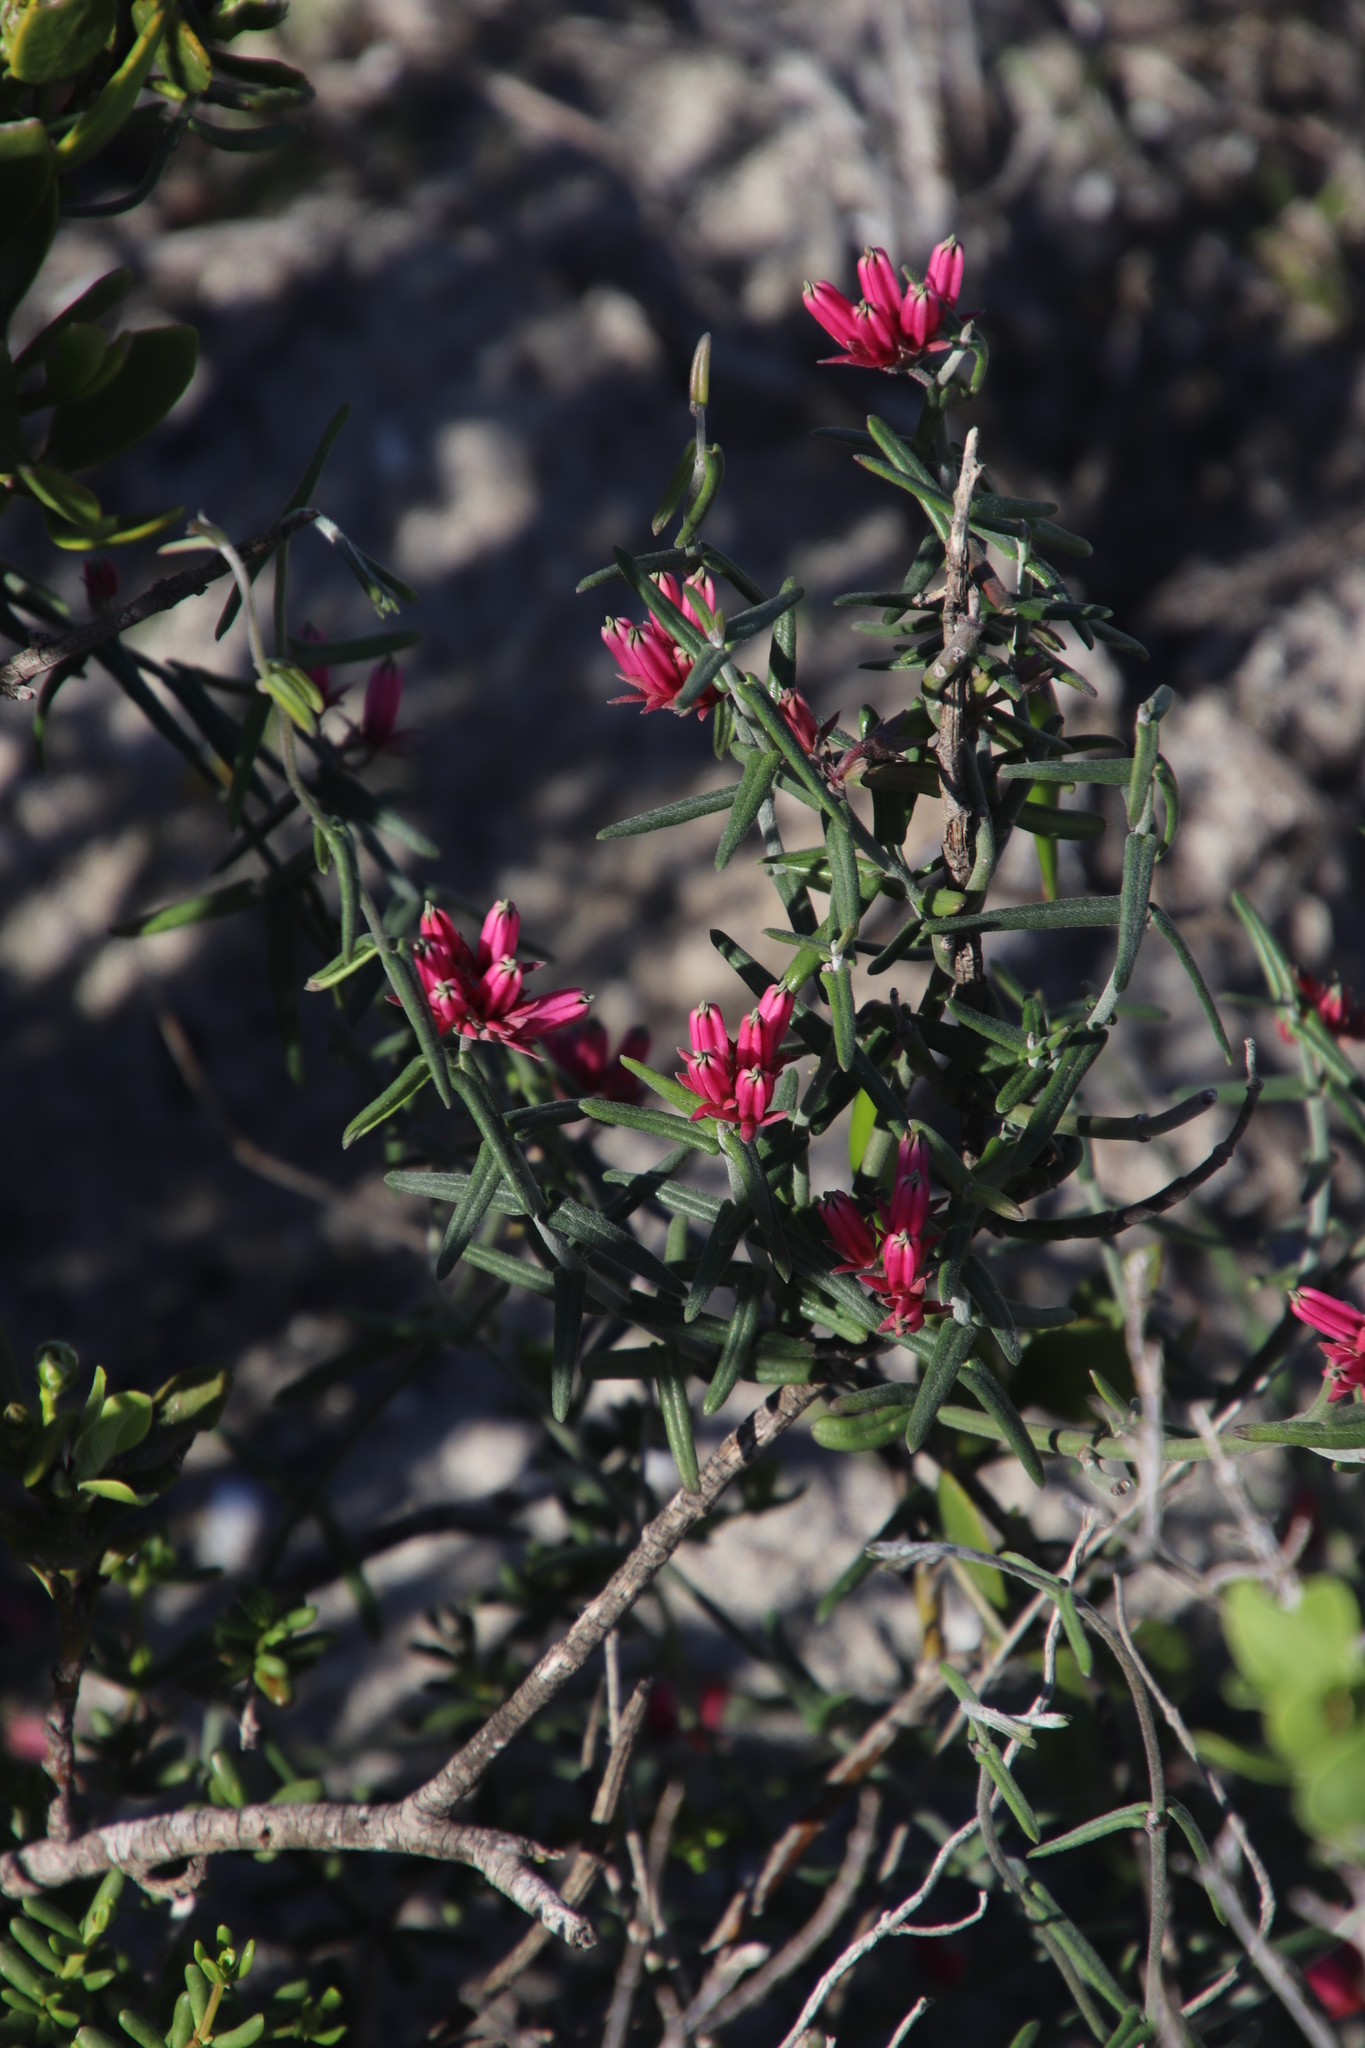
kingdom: Plantae
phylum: Tracheophyta
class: Magnoliopsida
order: Gentianales
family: Apocynaceae
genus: Microloma
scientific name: Microloma sagittatum
